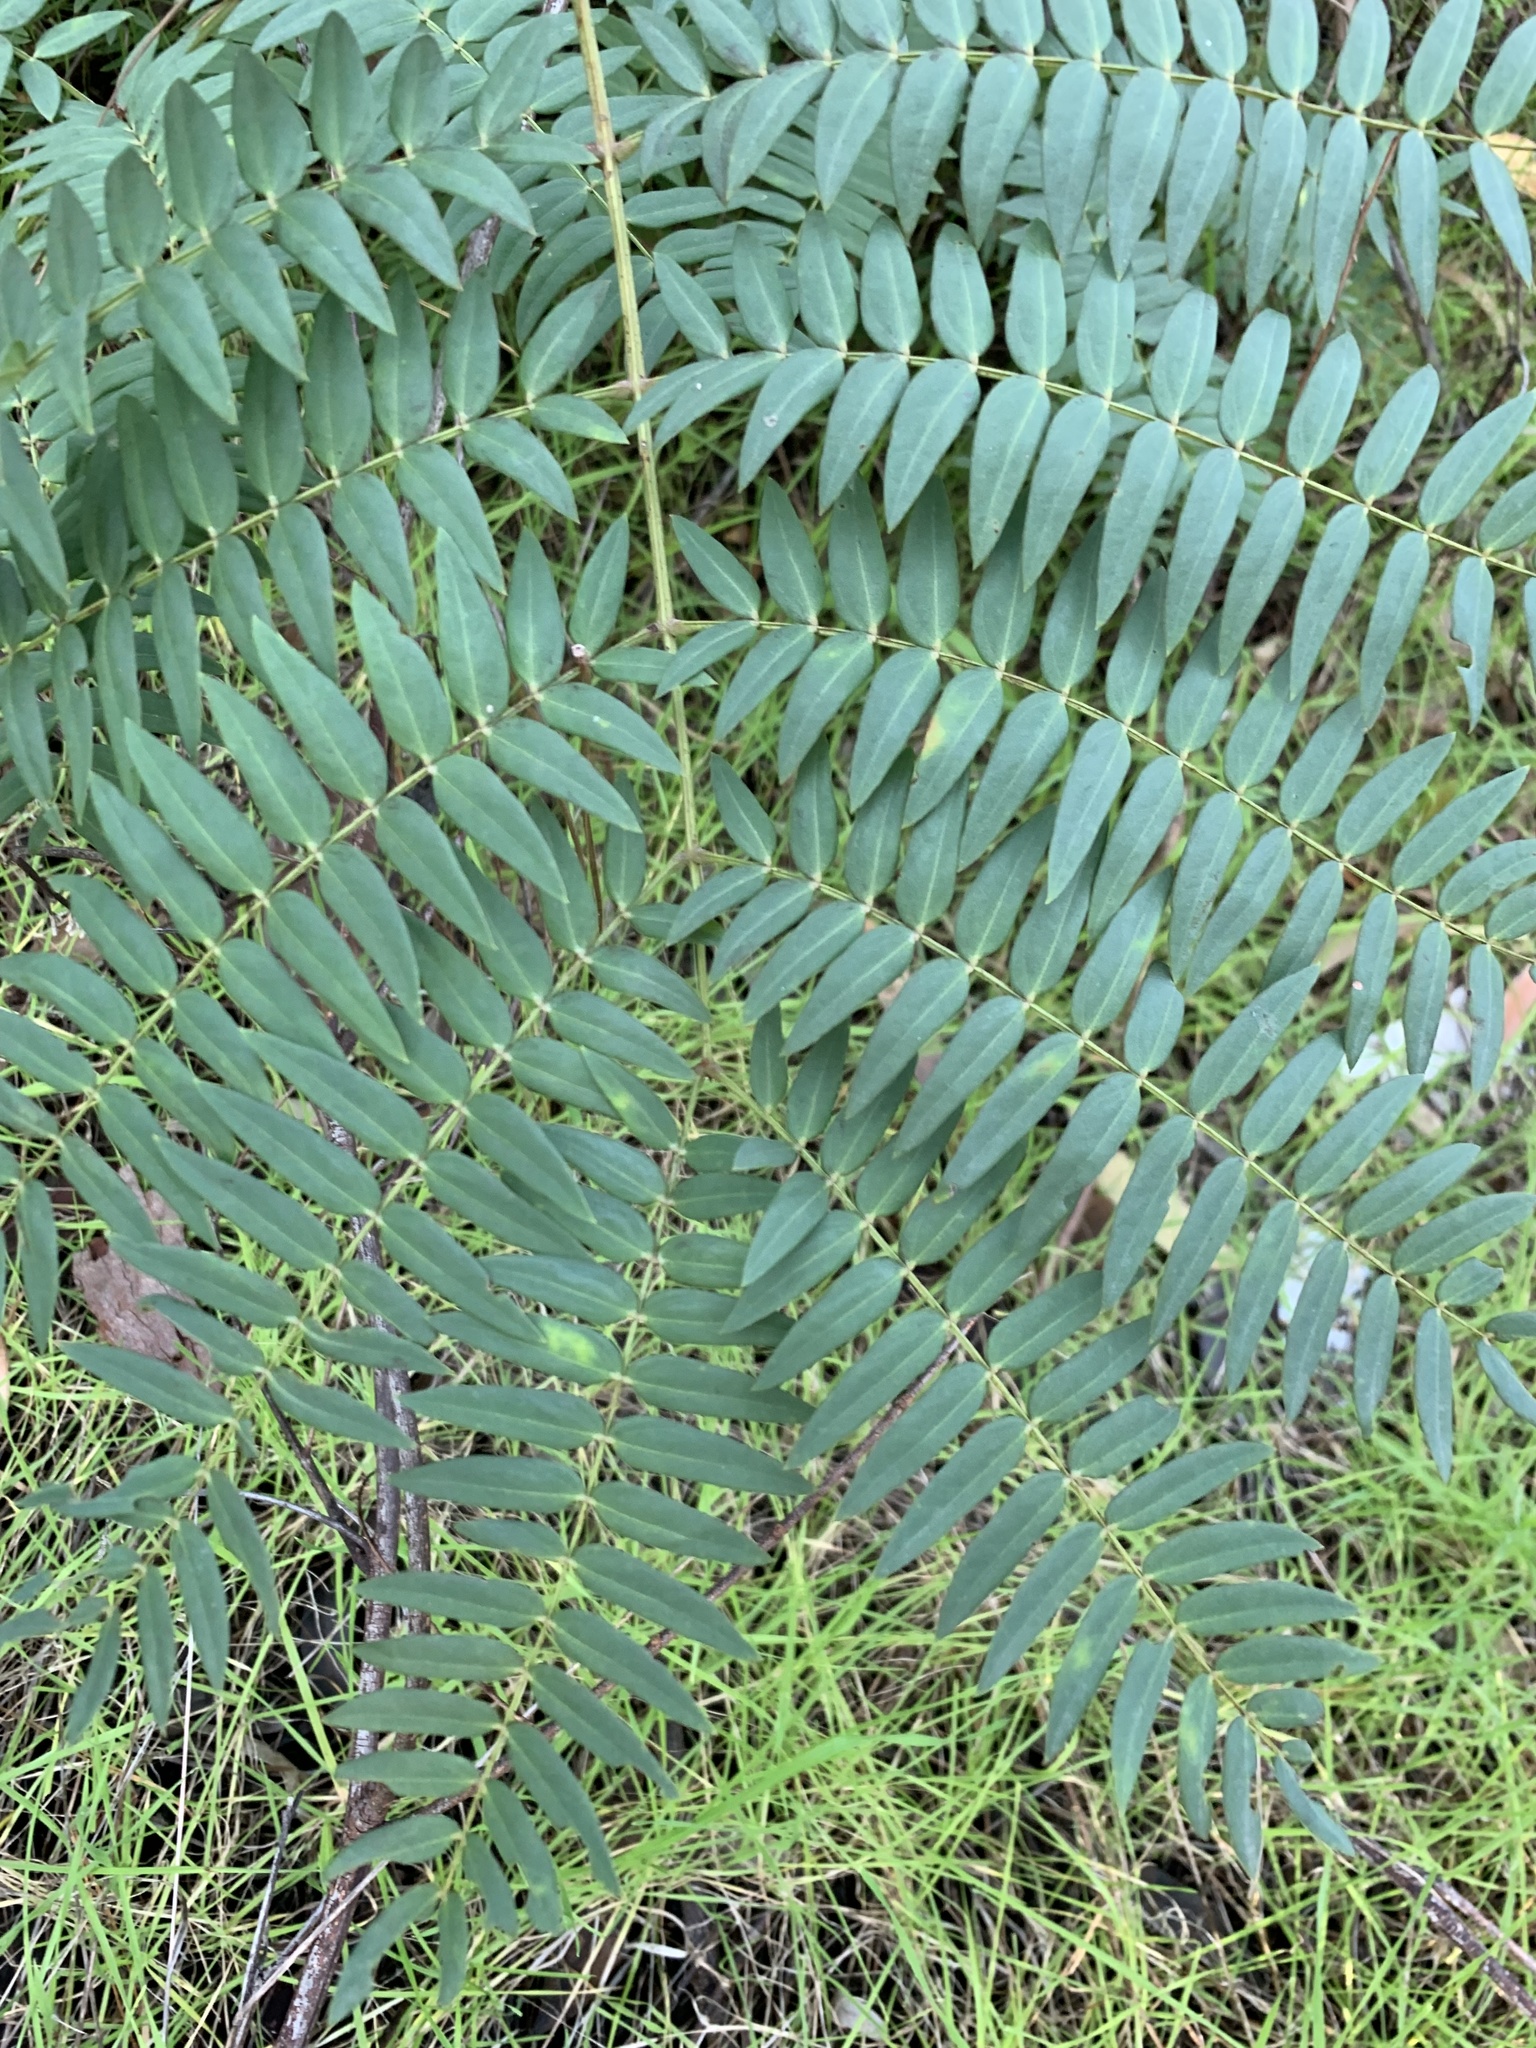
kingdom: Plantae
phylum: Tracheophyta
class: Magnoliopsida
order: Fabales
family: Fabaceae
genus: Acacia
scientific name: Acacia elata
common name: Cedar wattle
